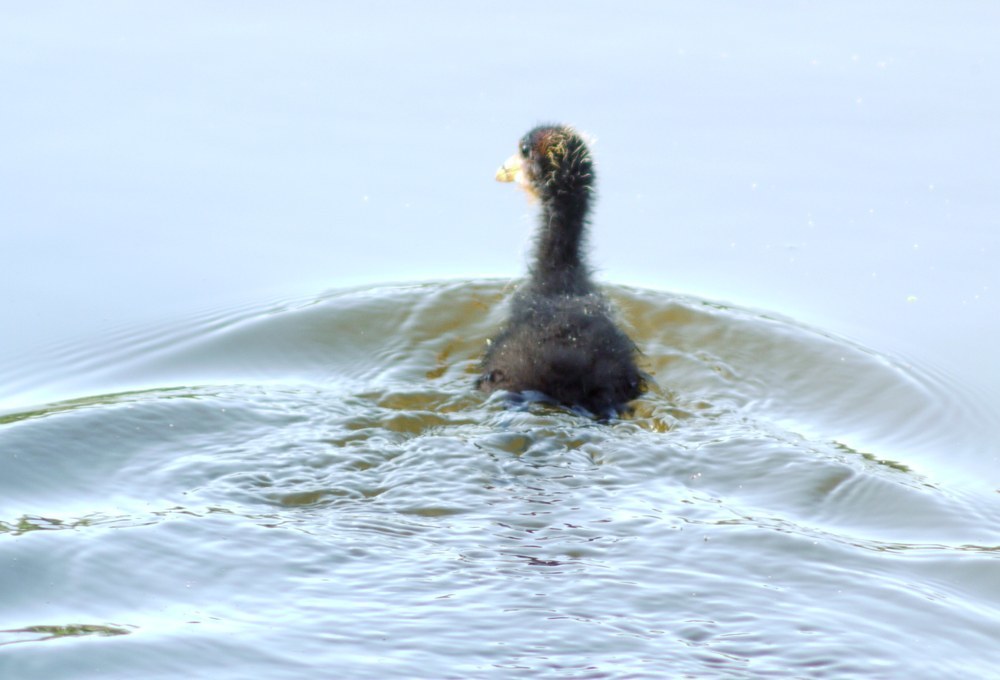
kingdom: Animalia
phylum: Chordata
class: Aves
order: Gruiformes
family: Rallidae
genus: Fulica
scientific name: Fulica atra
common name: Eurasian coot
